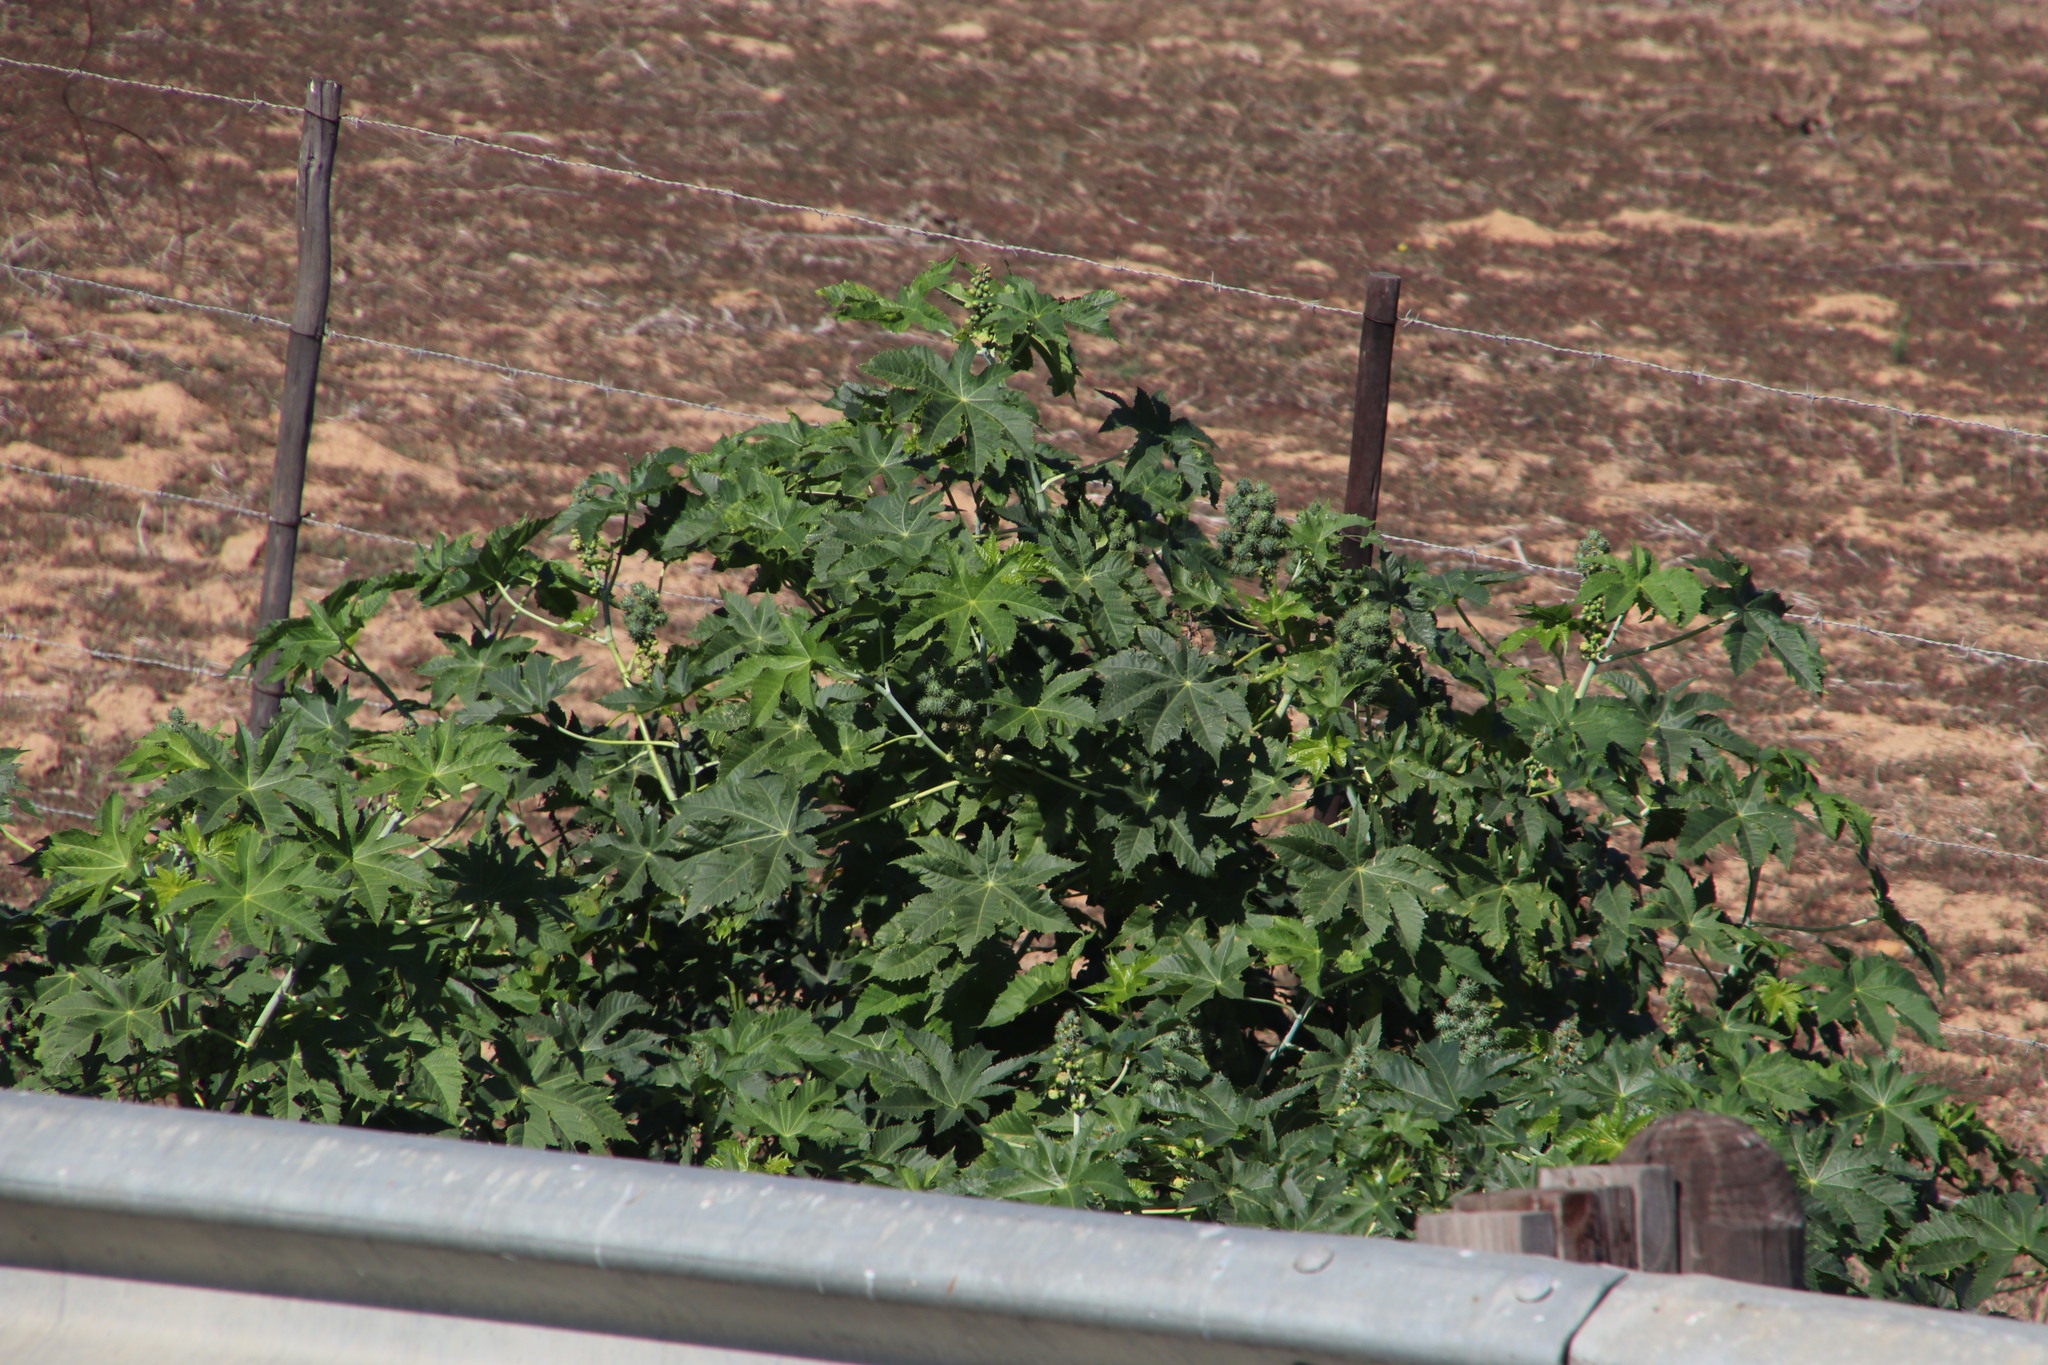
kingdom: Plantae
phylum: Tracheophyta
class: Magnoliopsida
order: Malpighiales
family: Euphorbiaceae
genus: Ricinus
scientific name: Ricinus communis
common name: Castor-oil-plant
